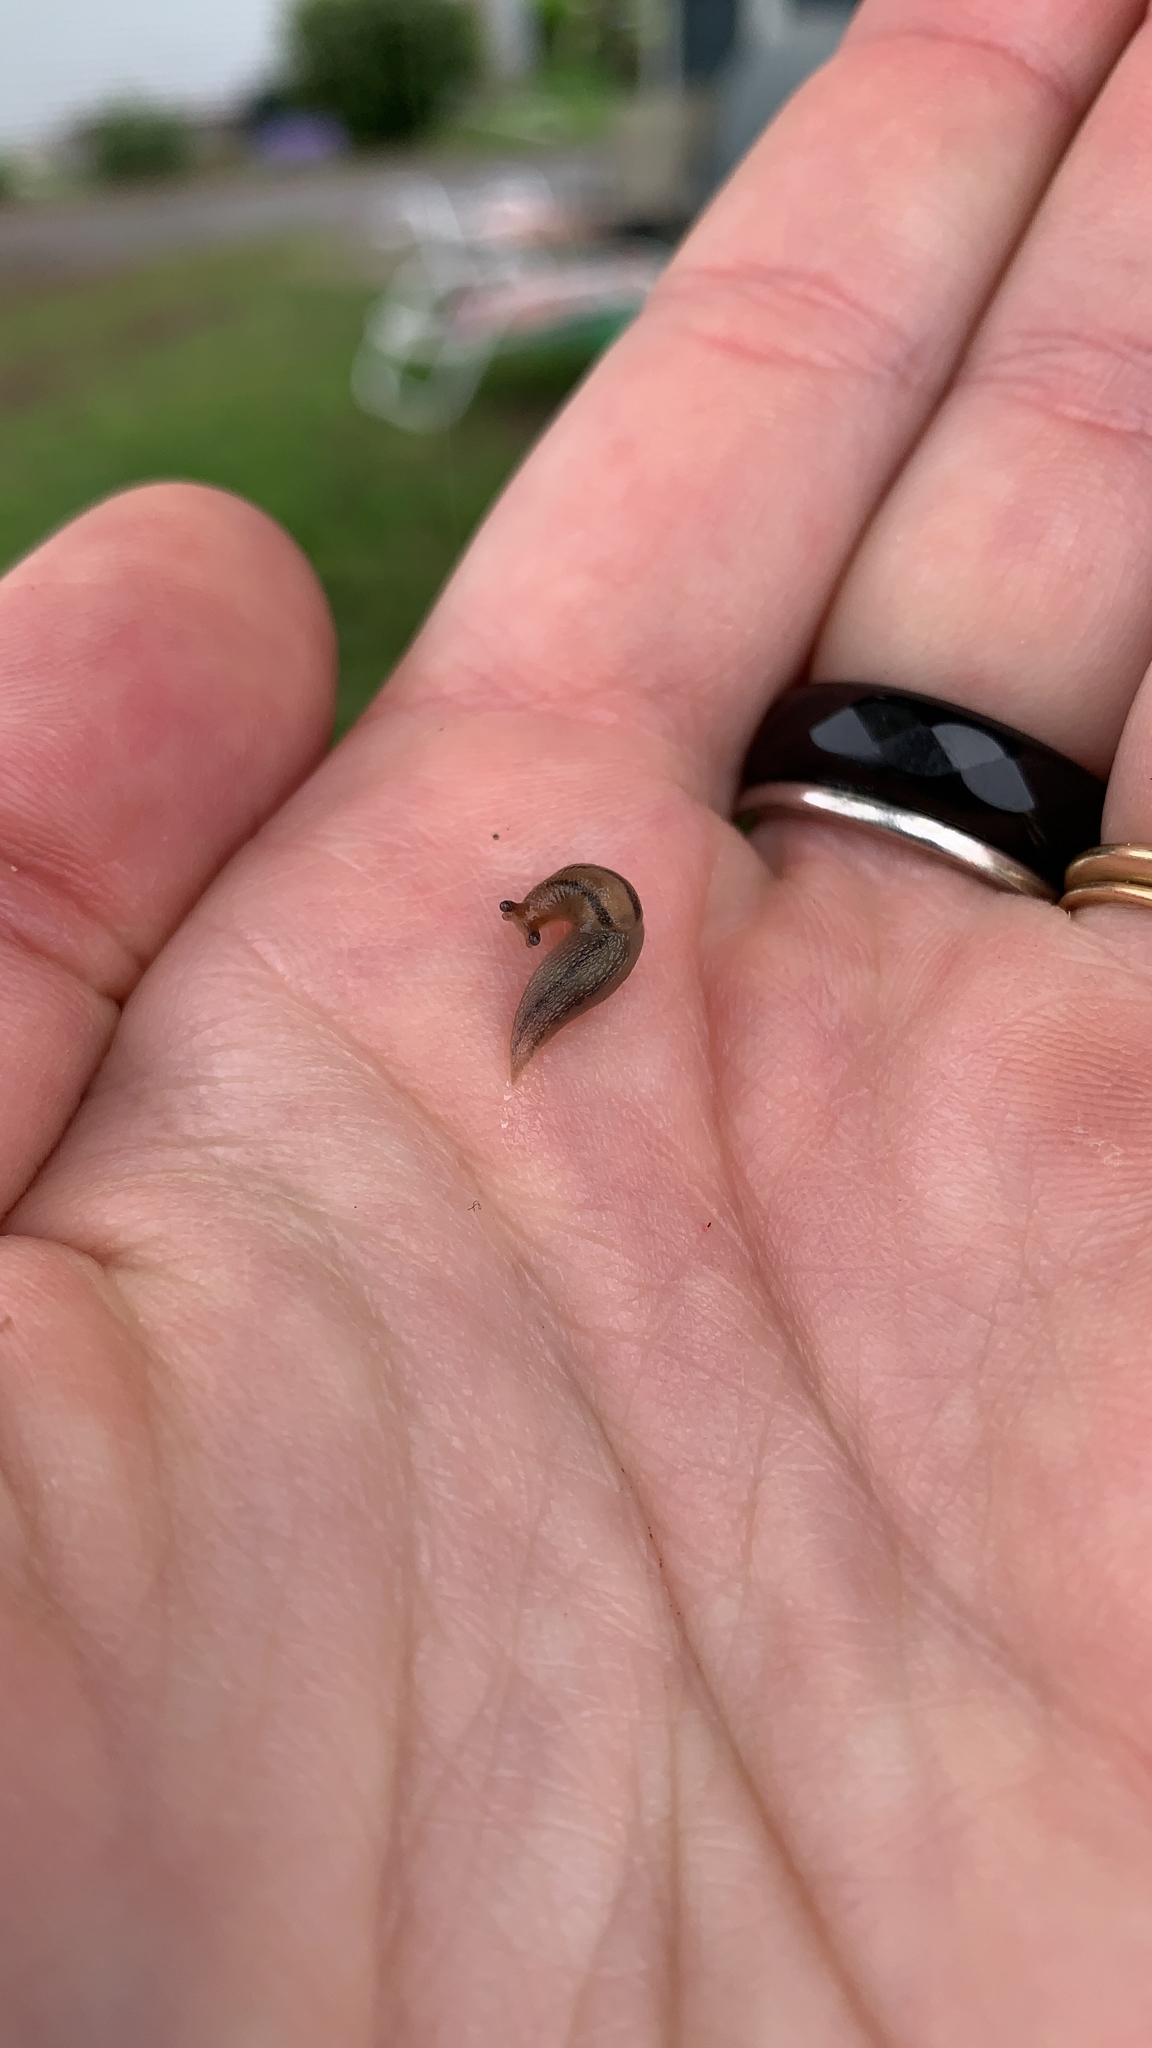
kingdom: Animalia
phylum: Mollusca
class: Gastropoda
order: Stylommatophora
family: Limacidae
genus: Ambigolimax
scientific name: Ambigolimax
